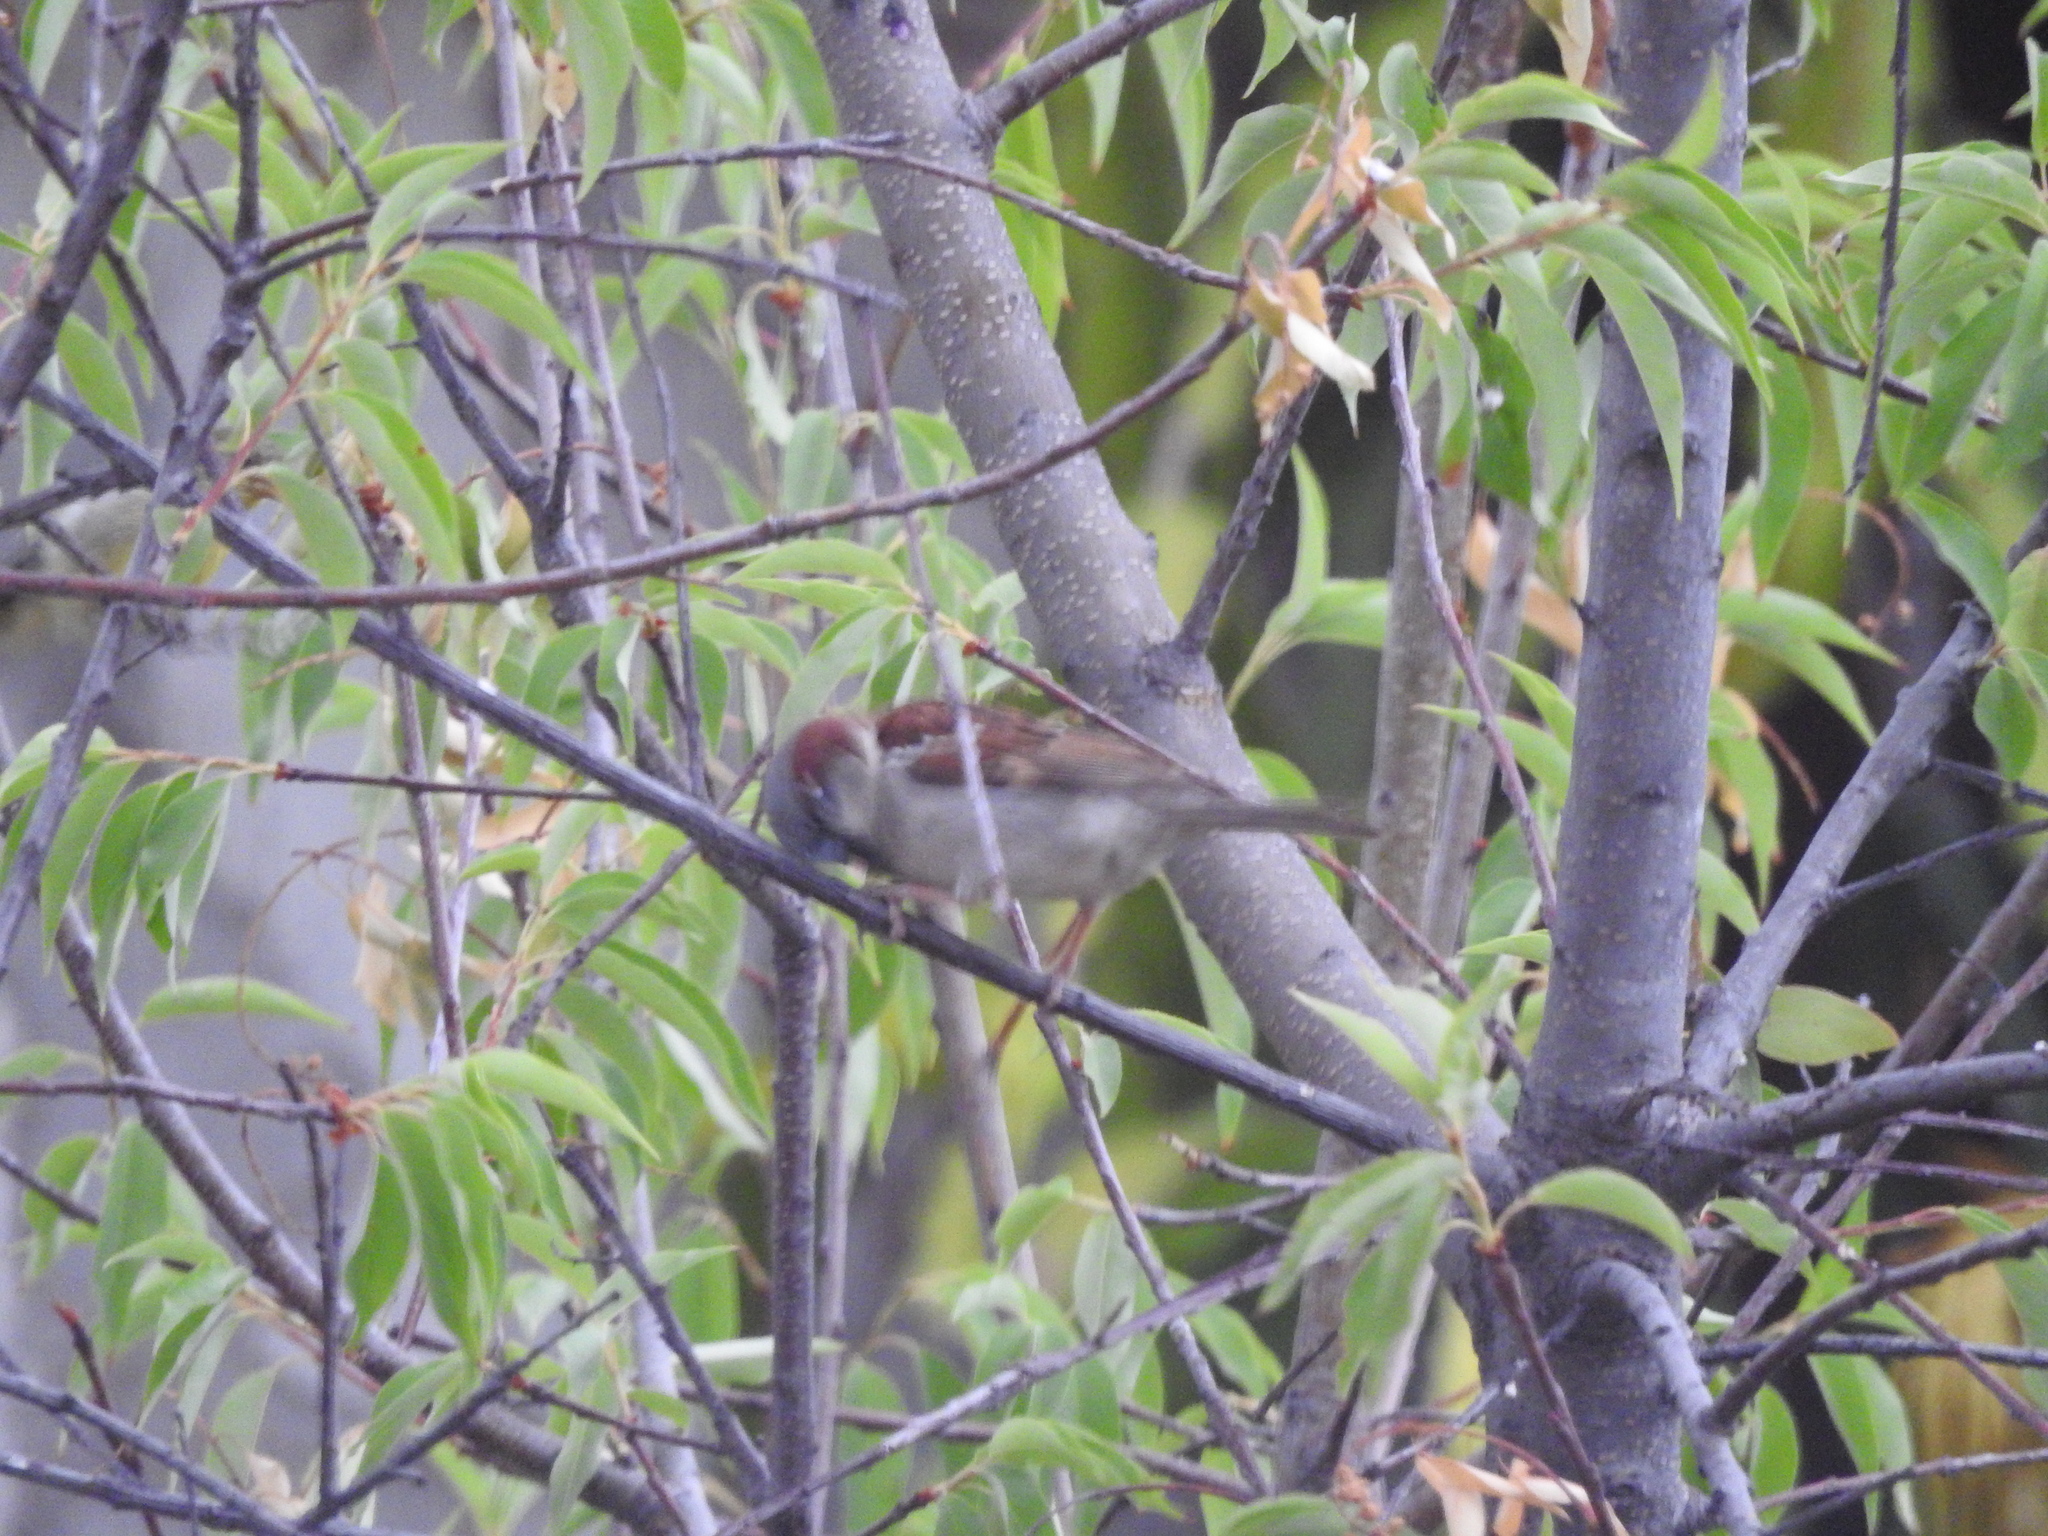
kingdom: Animalia
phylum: Chordata
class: Aves
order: Passeriformes
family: Passeridae
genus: Passer
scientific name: Passer domesticus
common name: House sparrow
